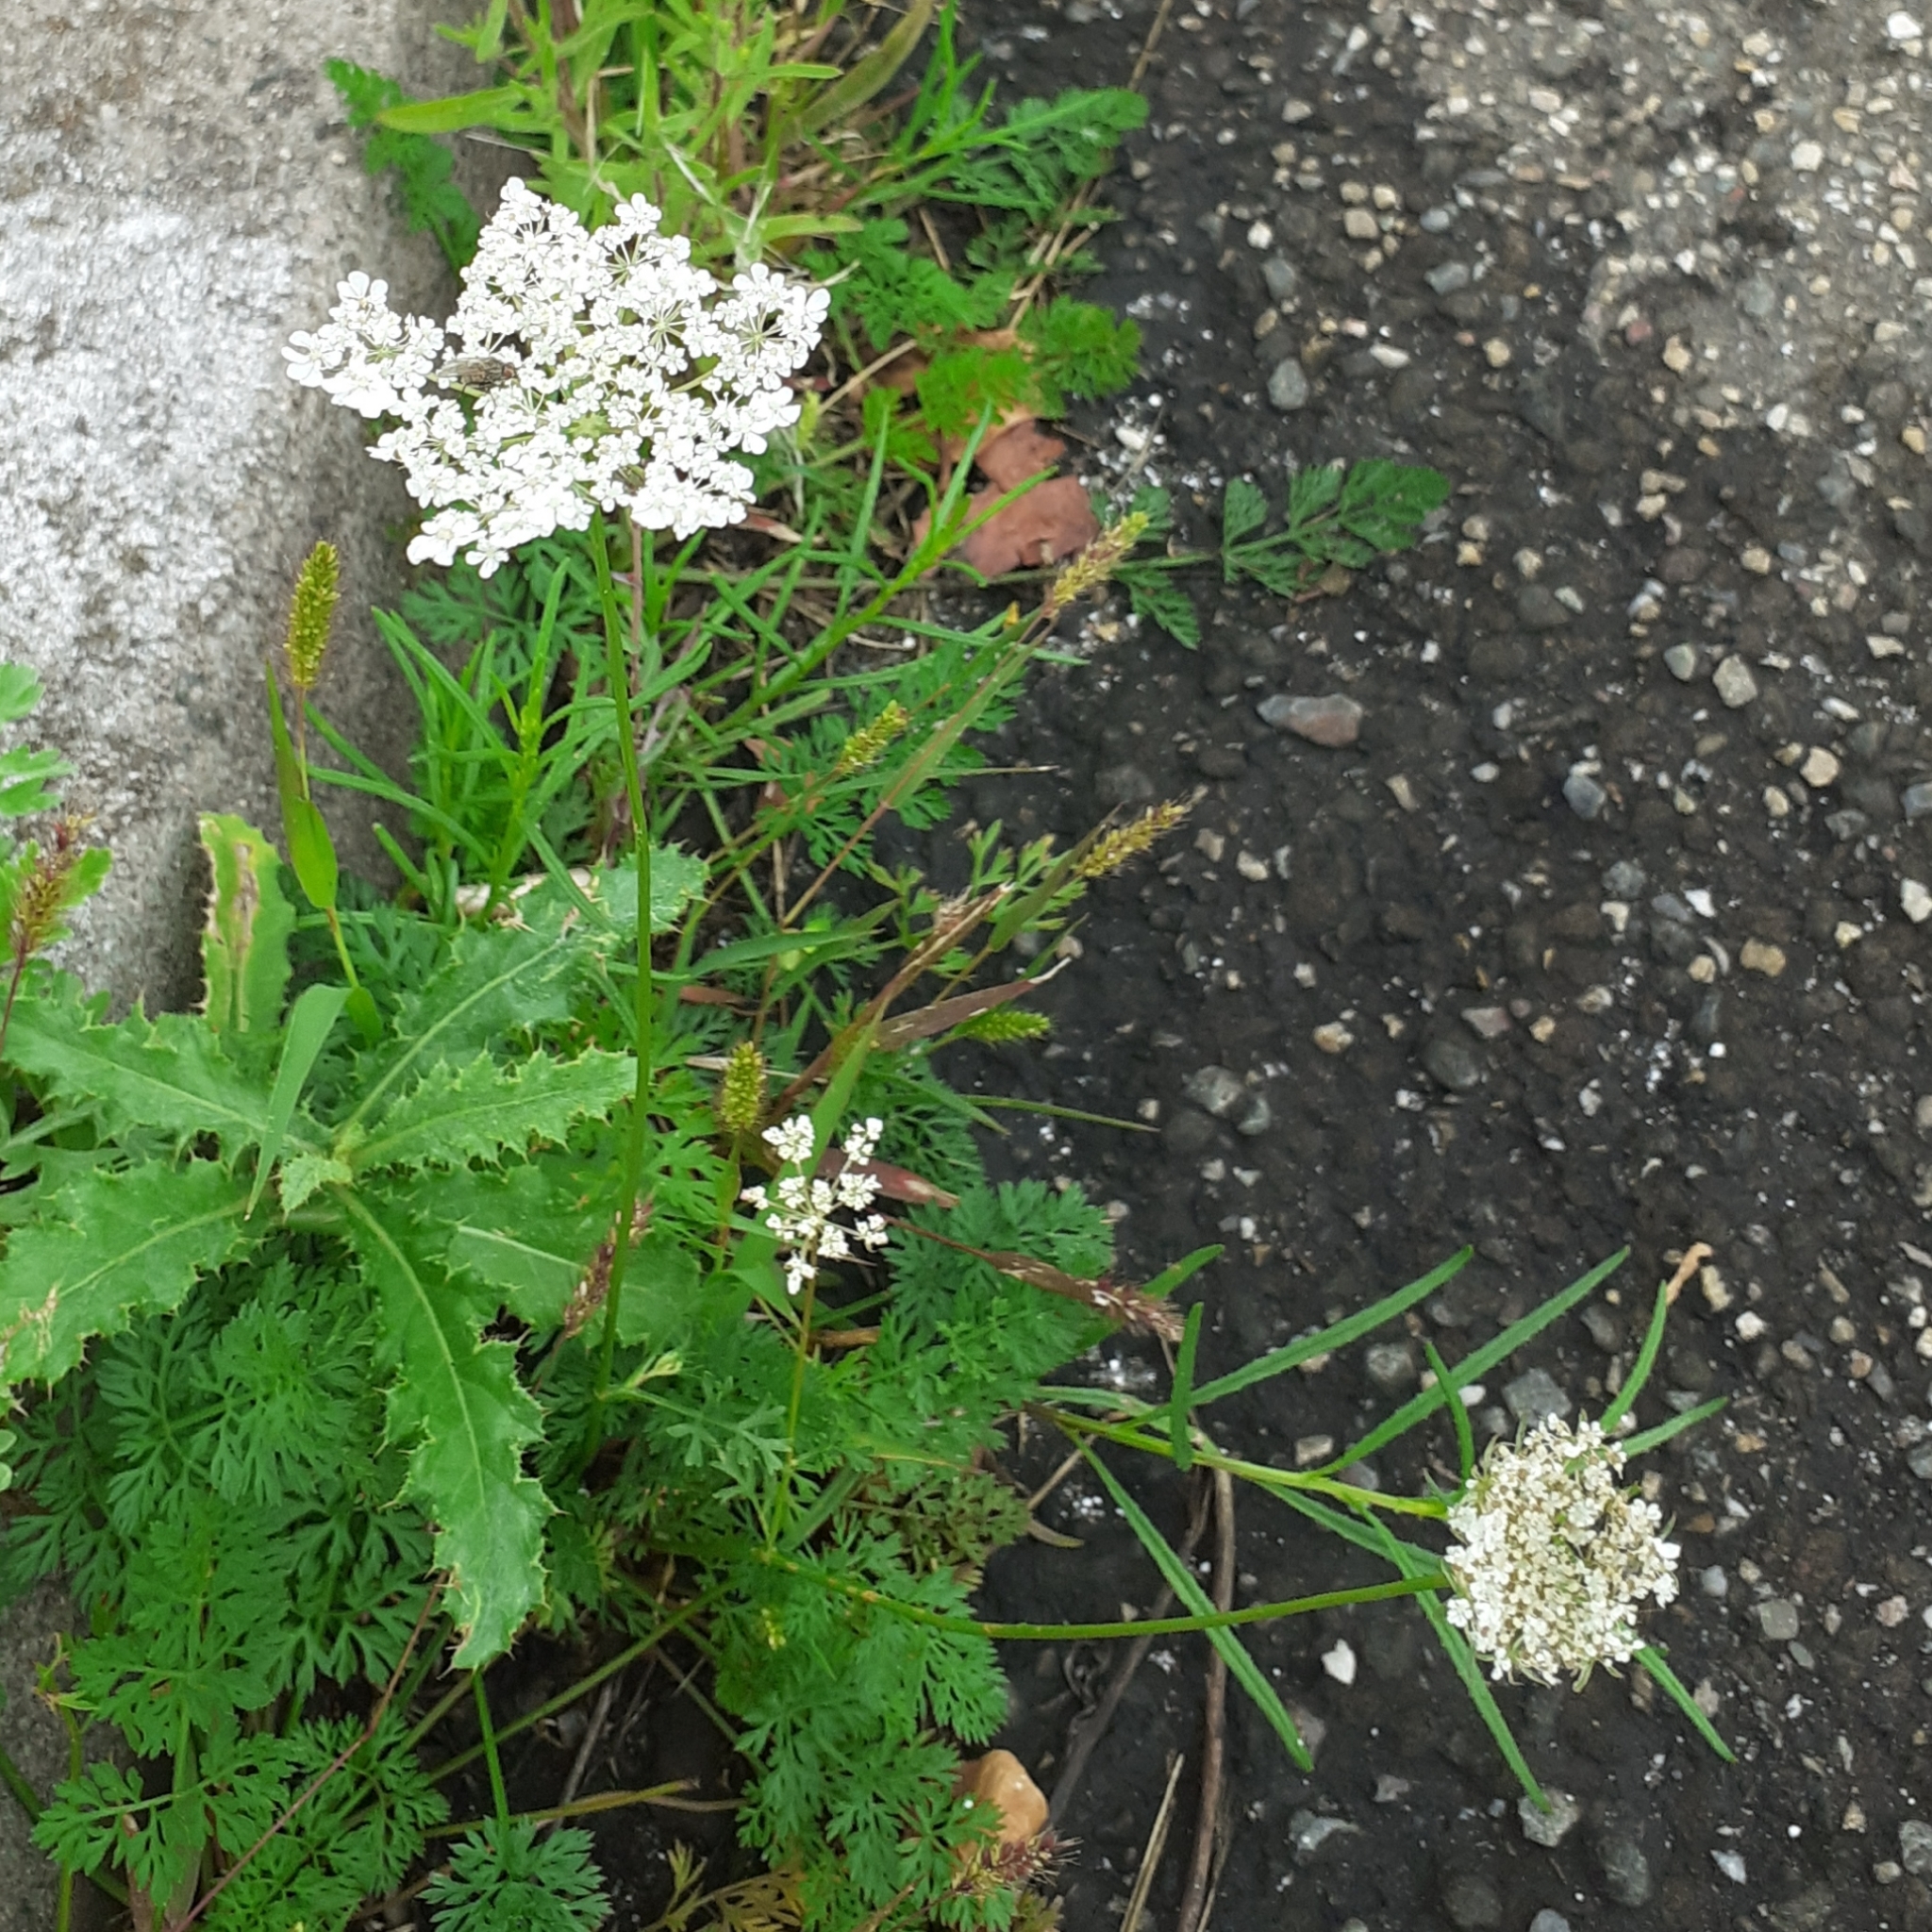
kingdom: Plantae
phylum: Tracheophyta
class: Magnoliopsida
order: Apiales
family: Apiaceae
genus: Daucus
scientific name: Daucus carota
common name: Wild carrot
